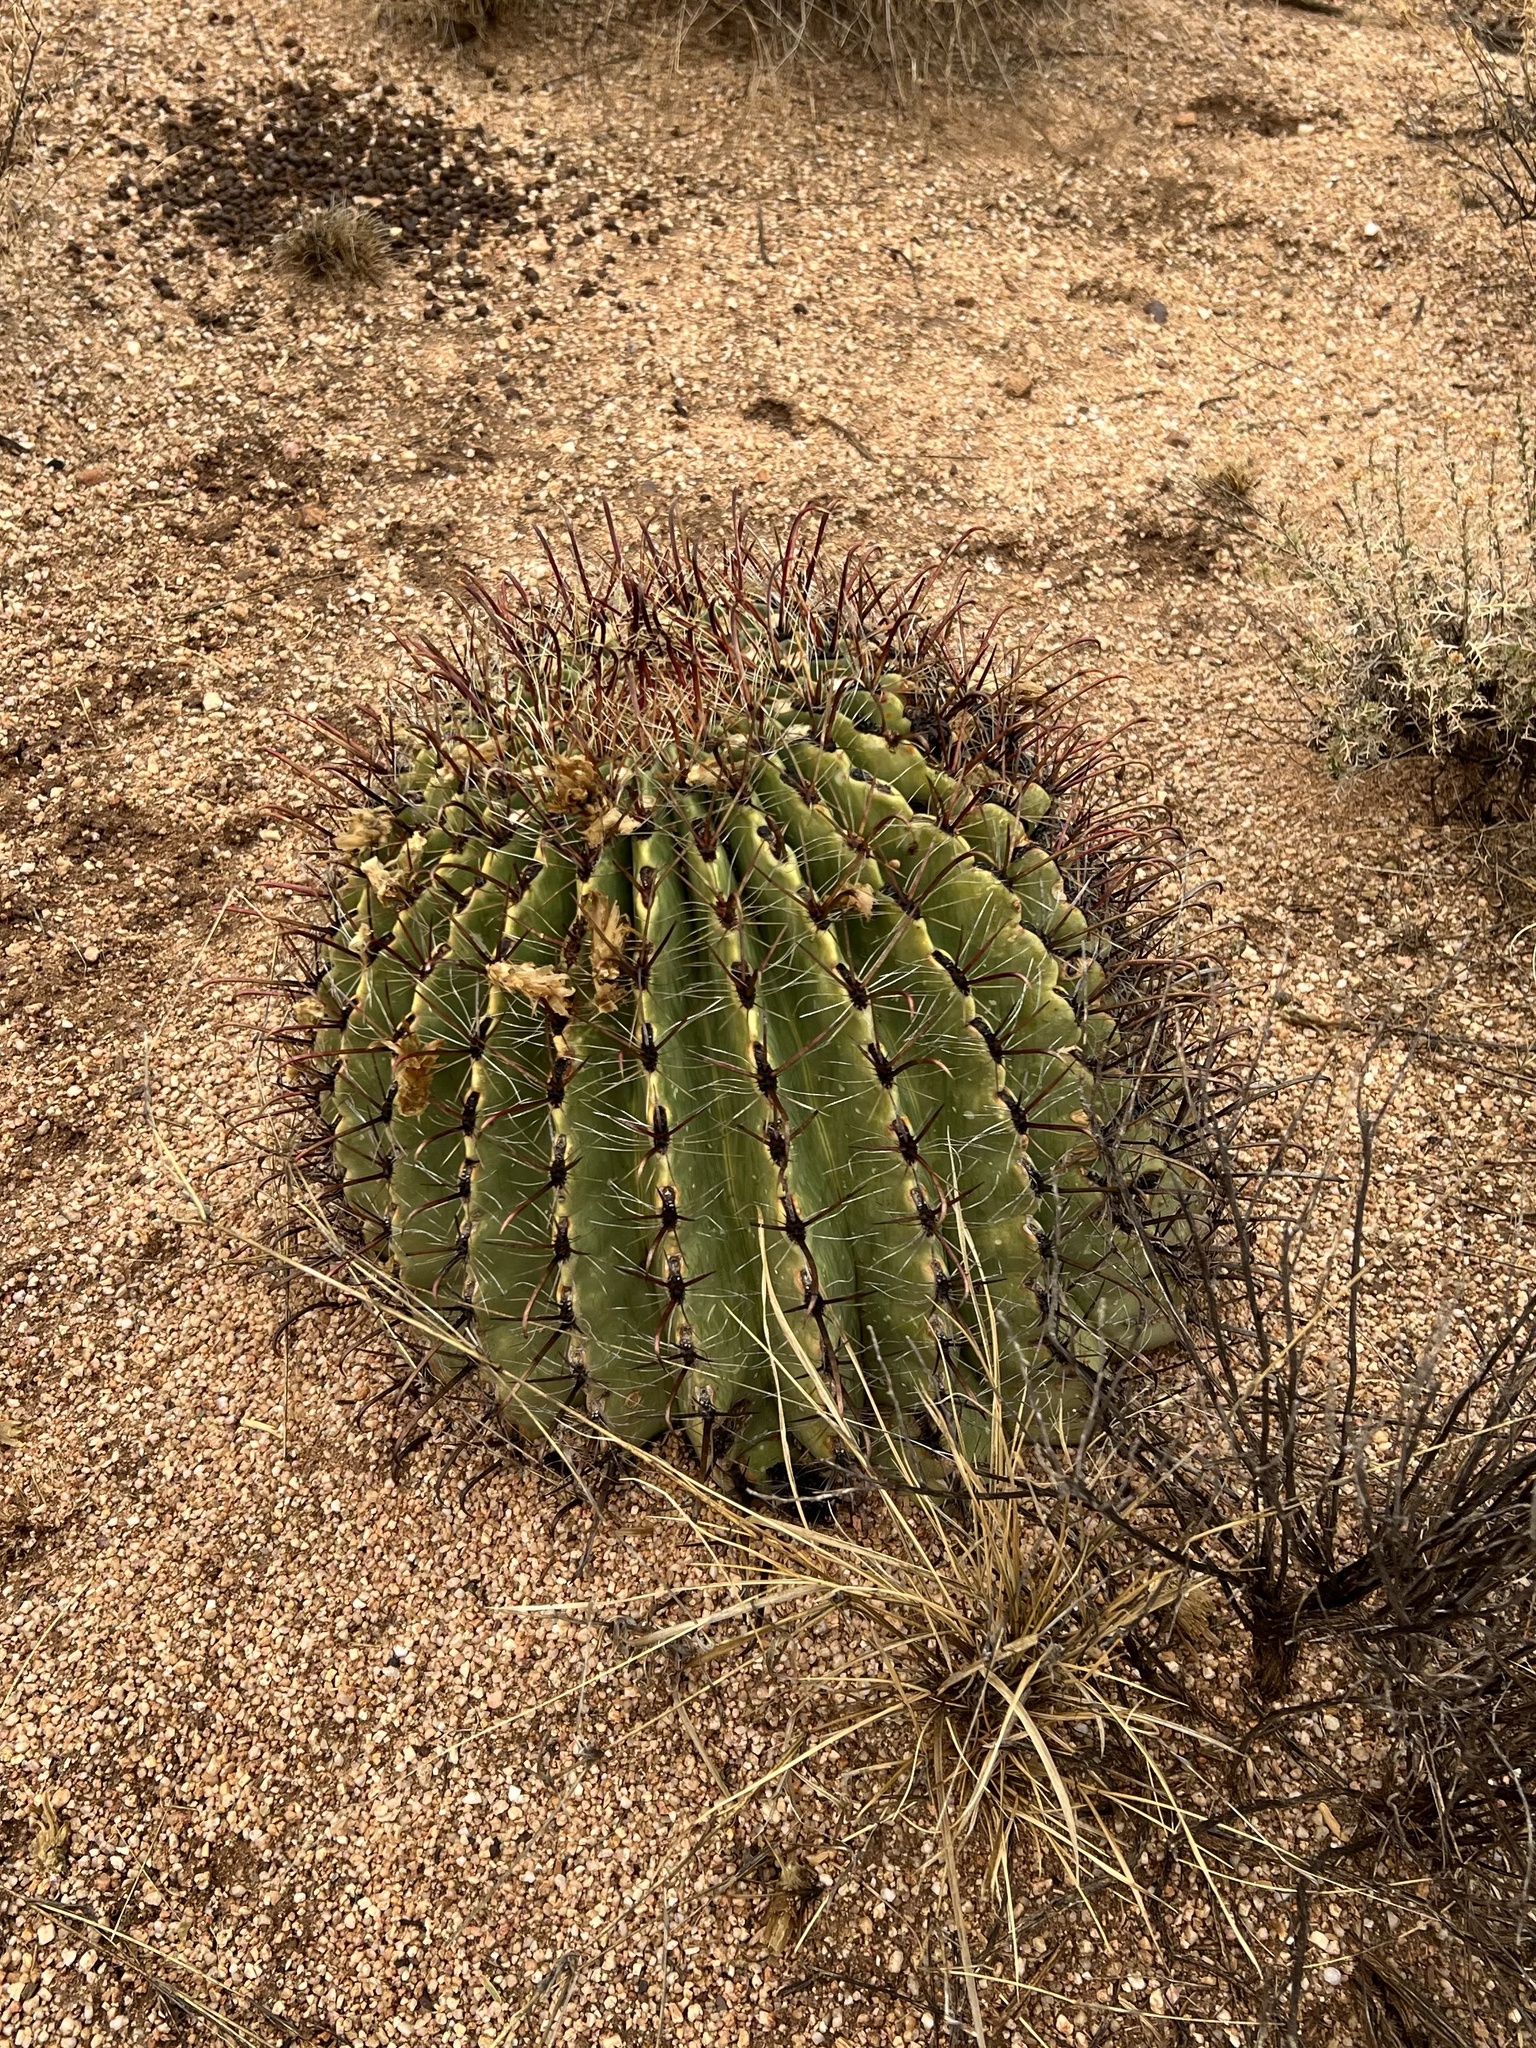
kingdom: Plantae
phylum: Tracheophyta
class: Magnoliopsida
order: Caryophyllales
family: Cactaceae
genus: Ferocactus
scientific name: Ferocactus wislizeni
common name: Candy barrel cactus
